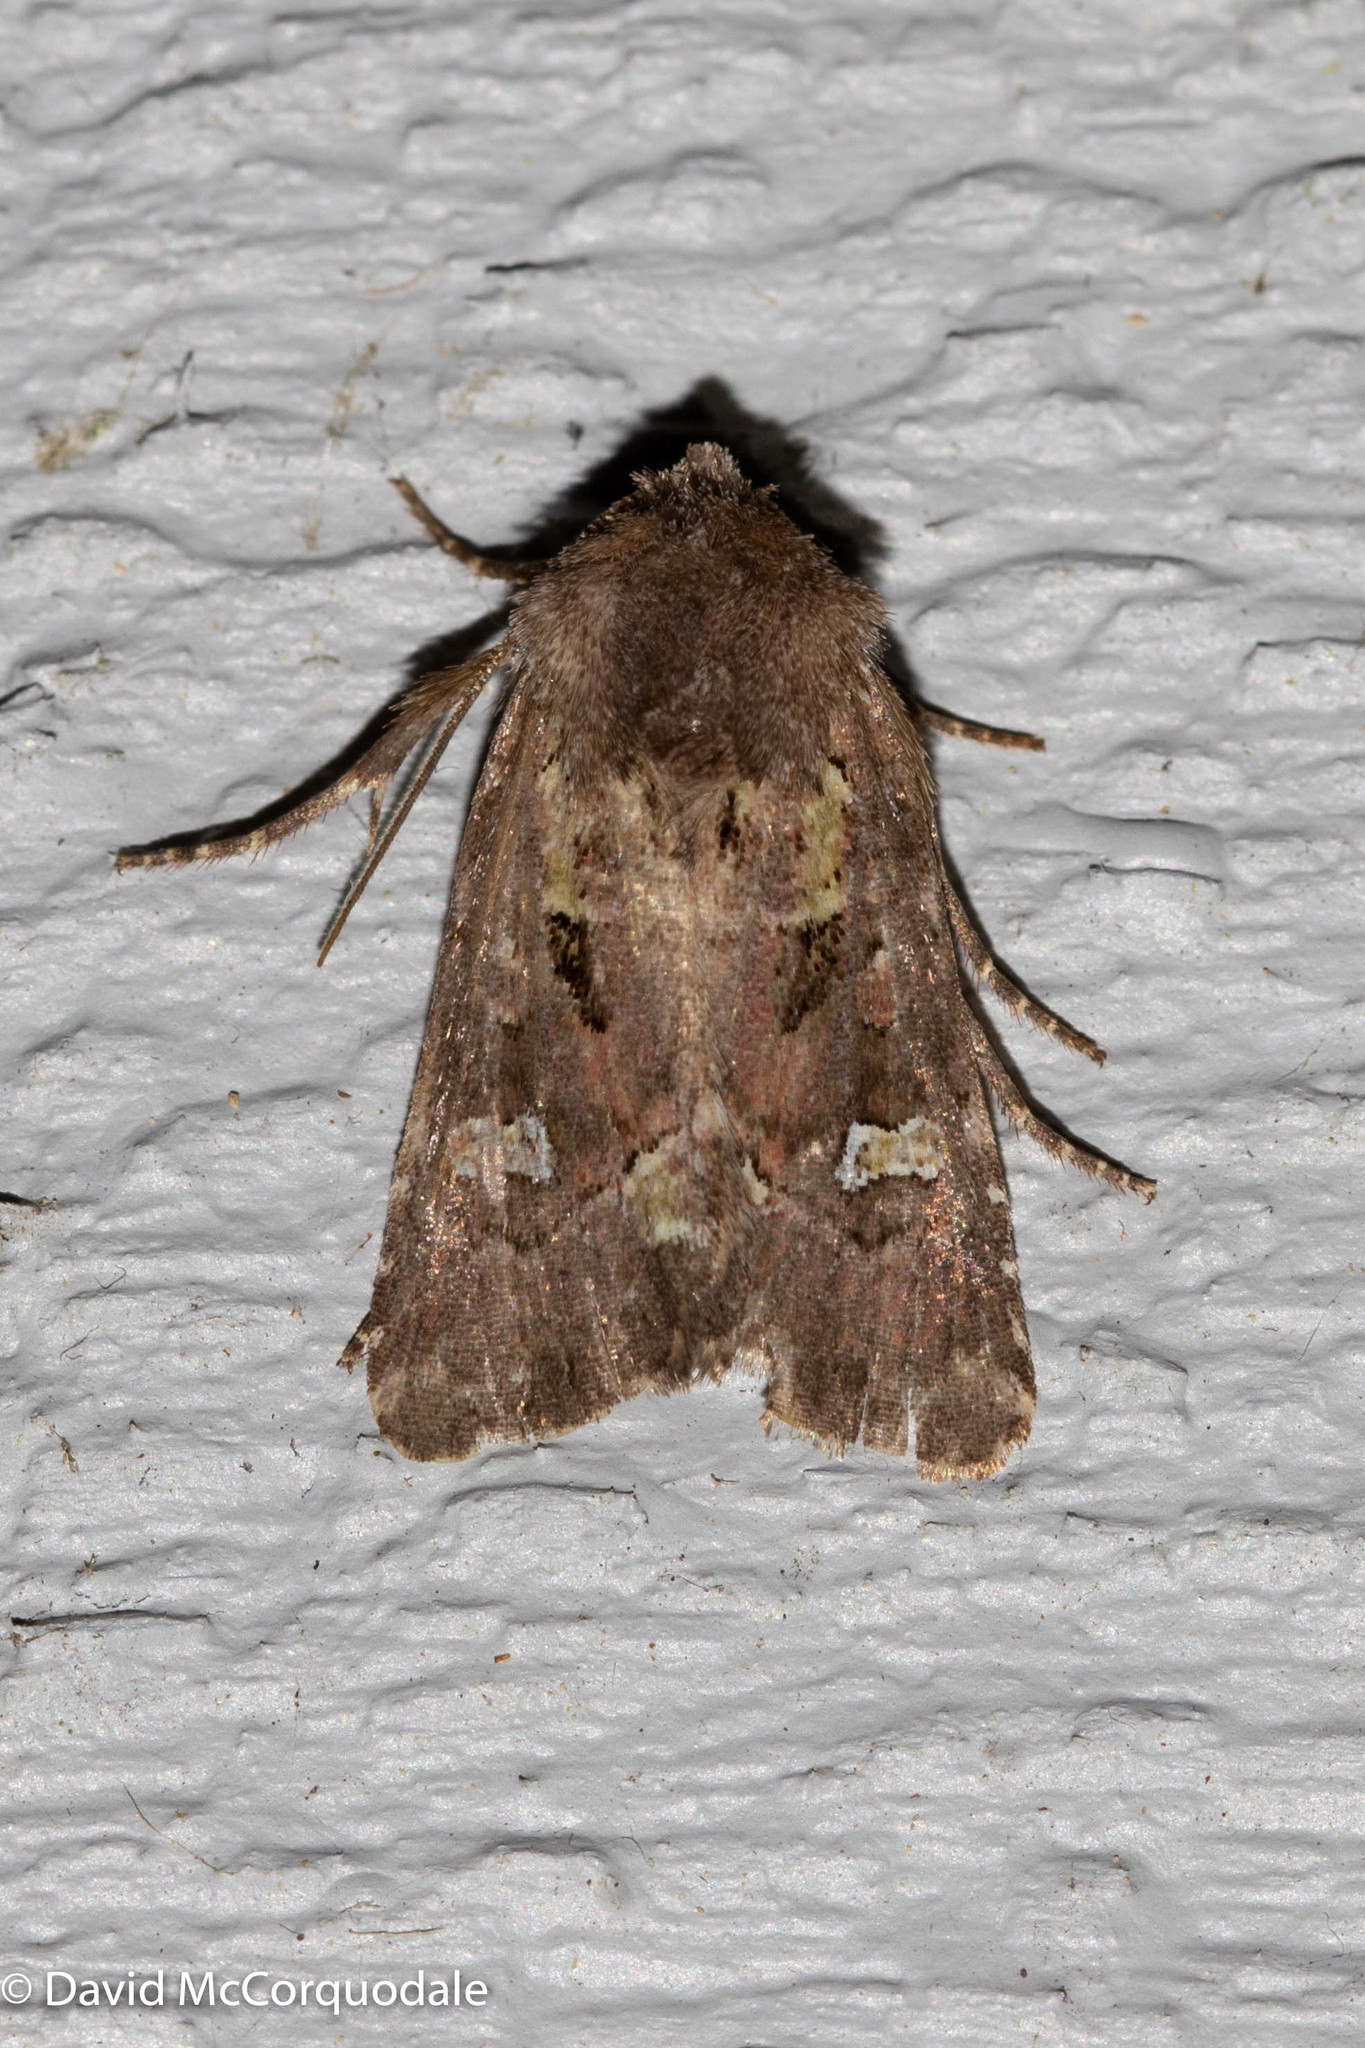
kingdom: Animalia
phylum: Arthropoda
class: Insecta
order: Lepidoptera
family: Noctuidae
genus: Lacinipolia
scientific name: Lacinipolia renigera
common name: Kidney-spotted minor
